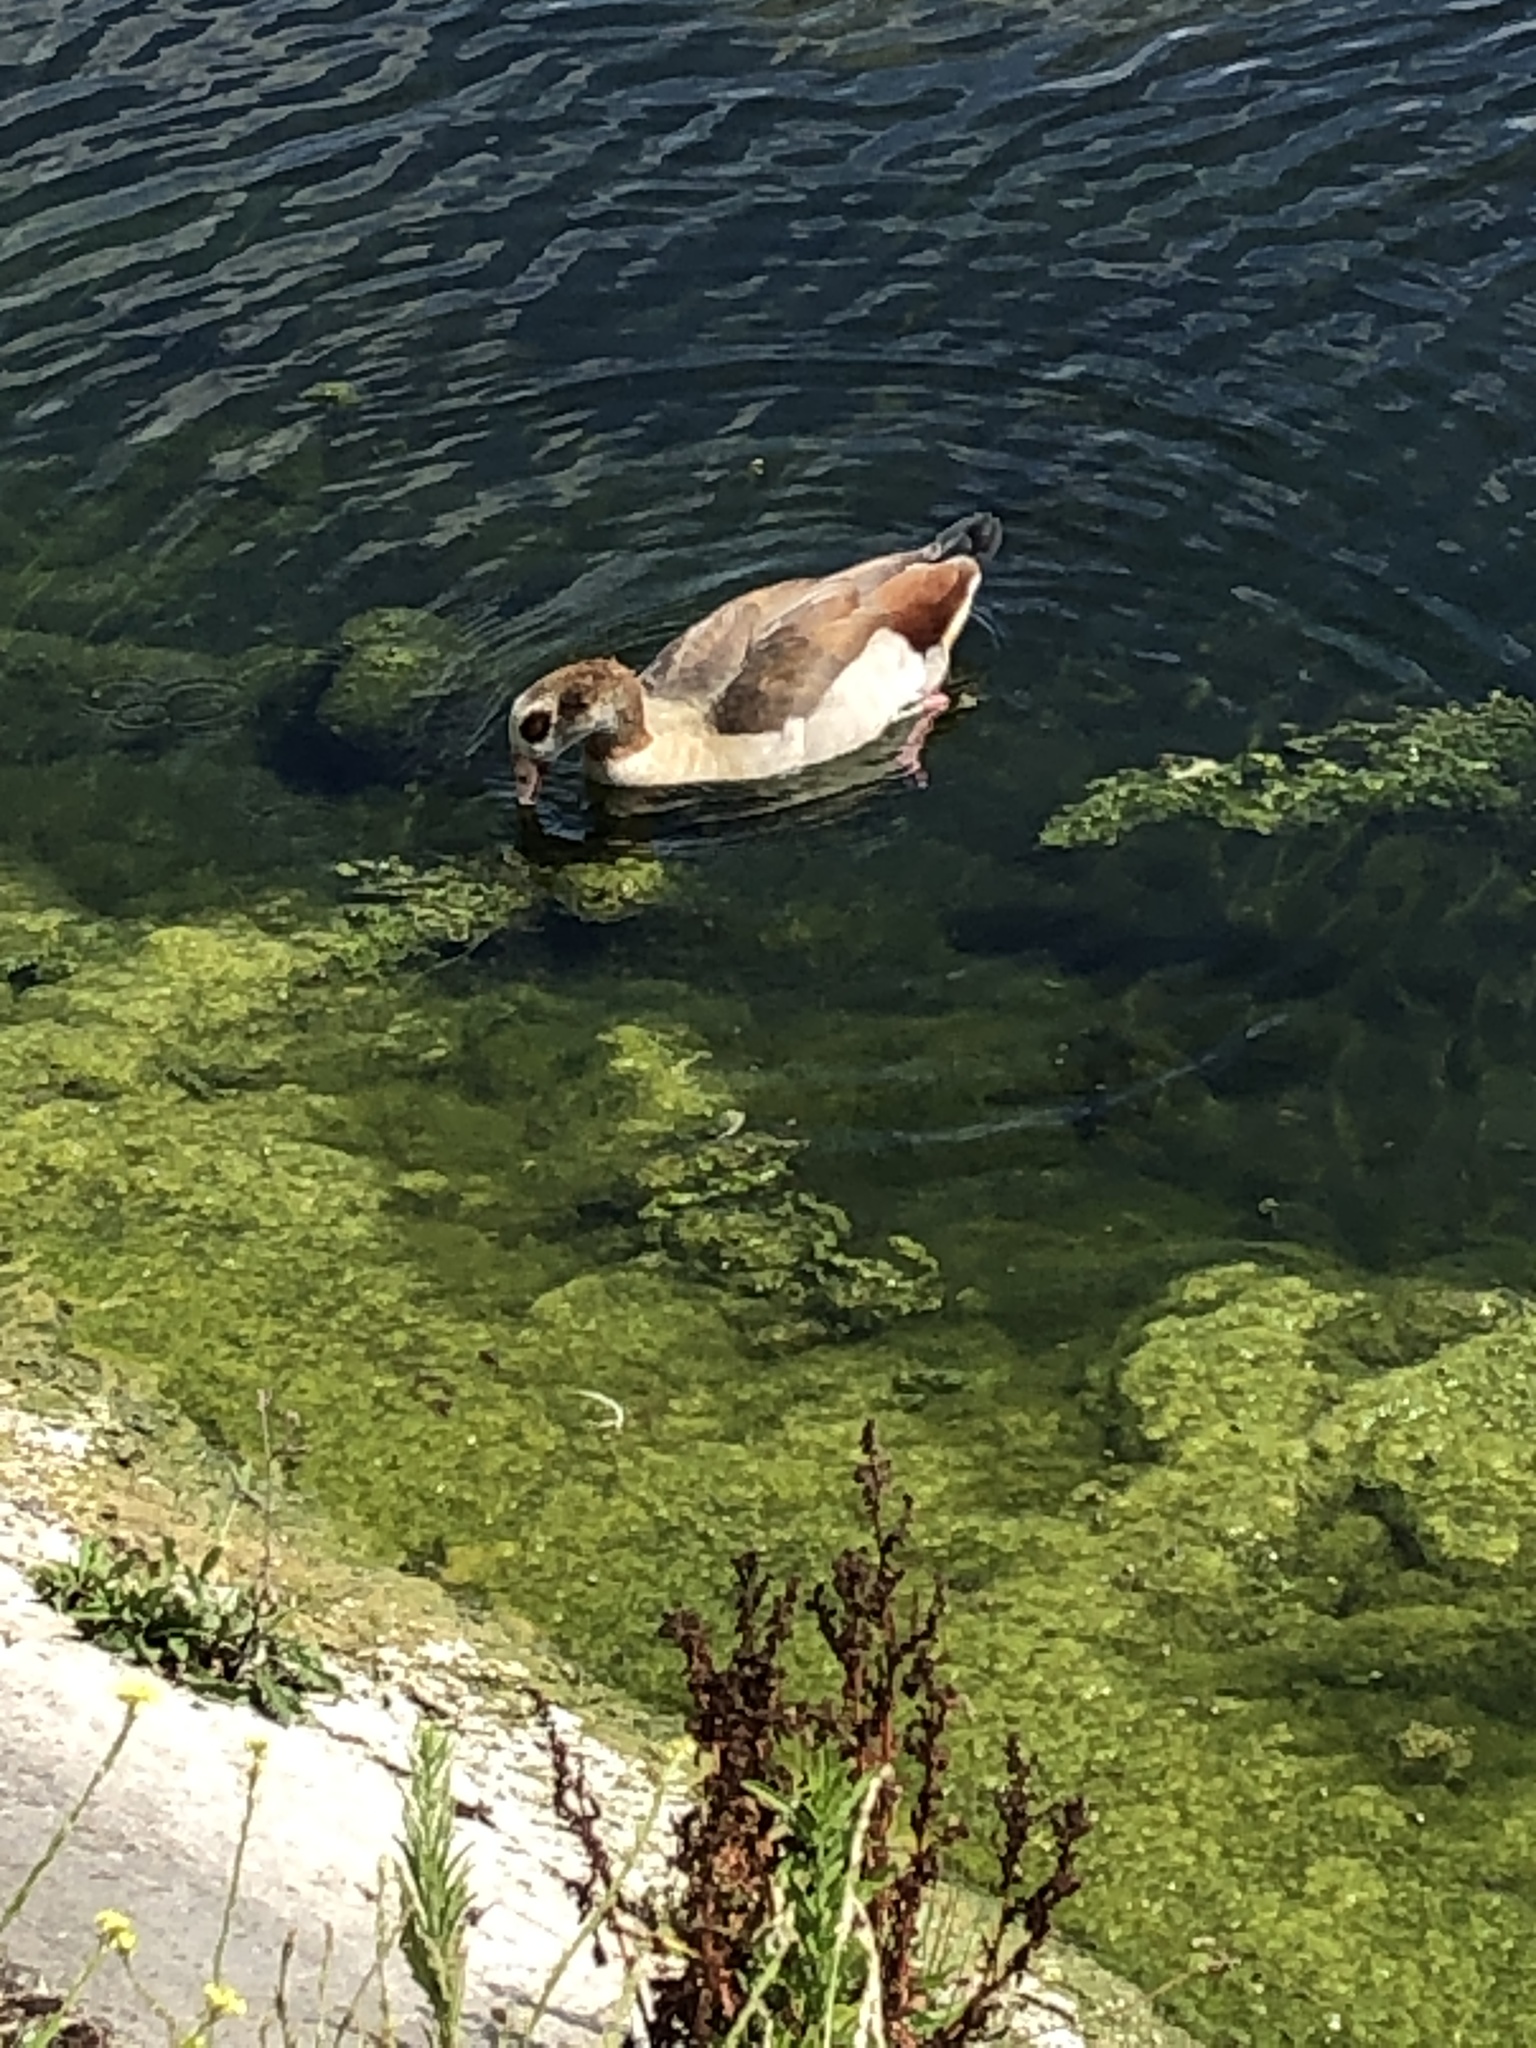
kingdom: Animalia
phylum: Chordata
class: Aves
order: Anseriformes
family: Anatidae
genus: Alopochen
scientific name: Alopochen aegyptiaca
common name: Egyptian goose
